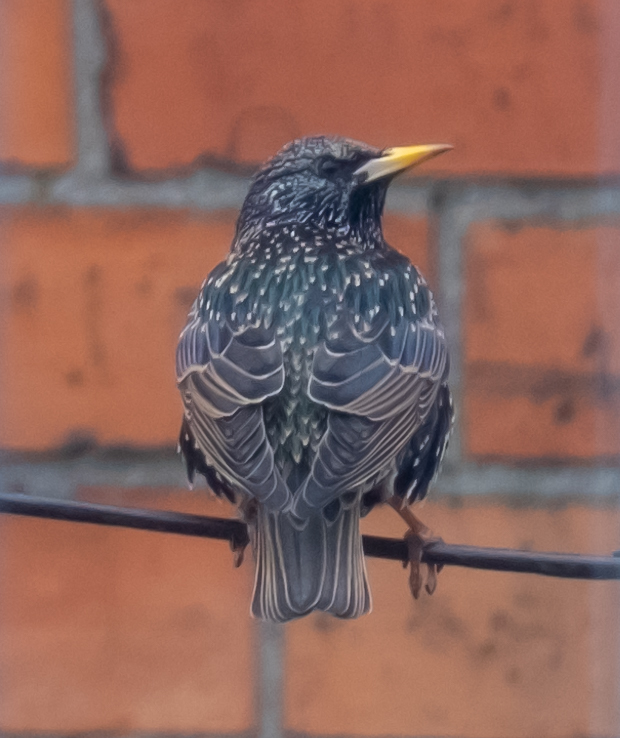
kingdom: Animalia
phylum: Chordata
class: Aves
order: Passeriformes
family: Sturnidae
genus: Sturnus
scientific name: Sturnus vulgaris
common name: Common starling
